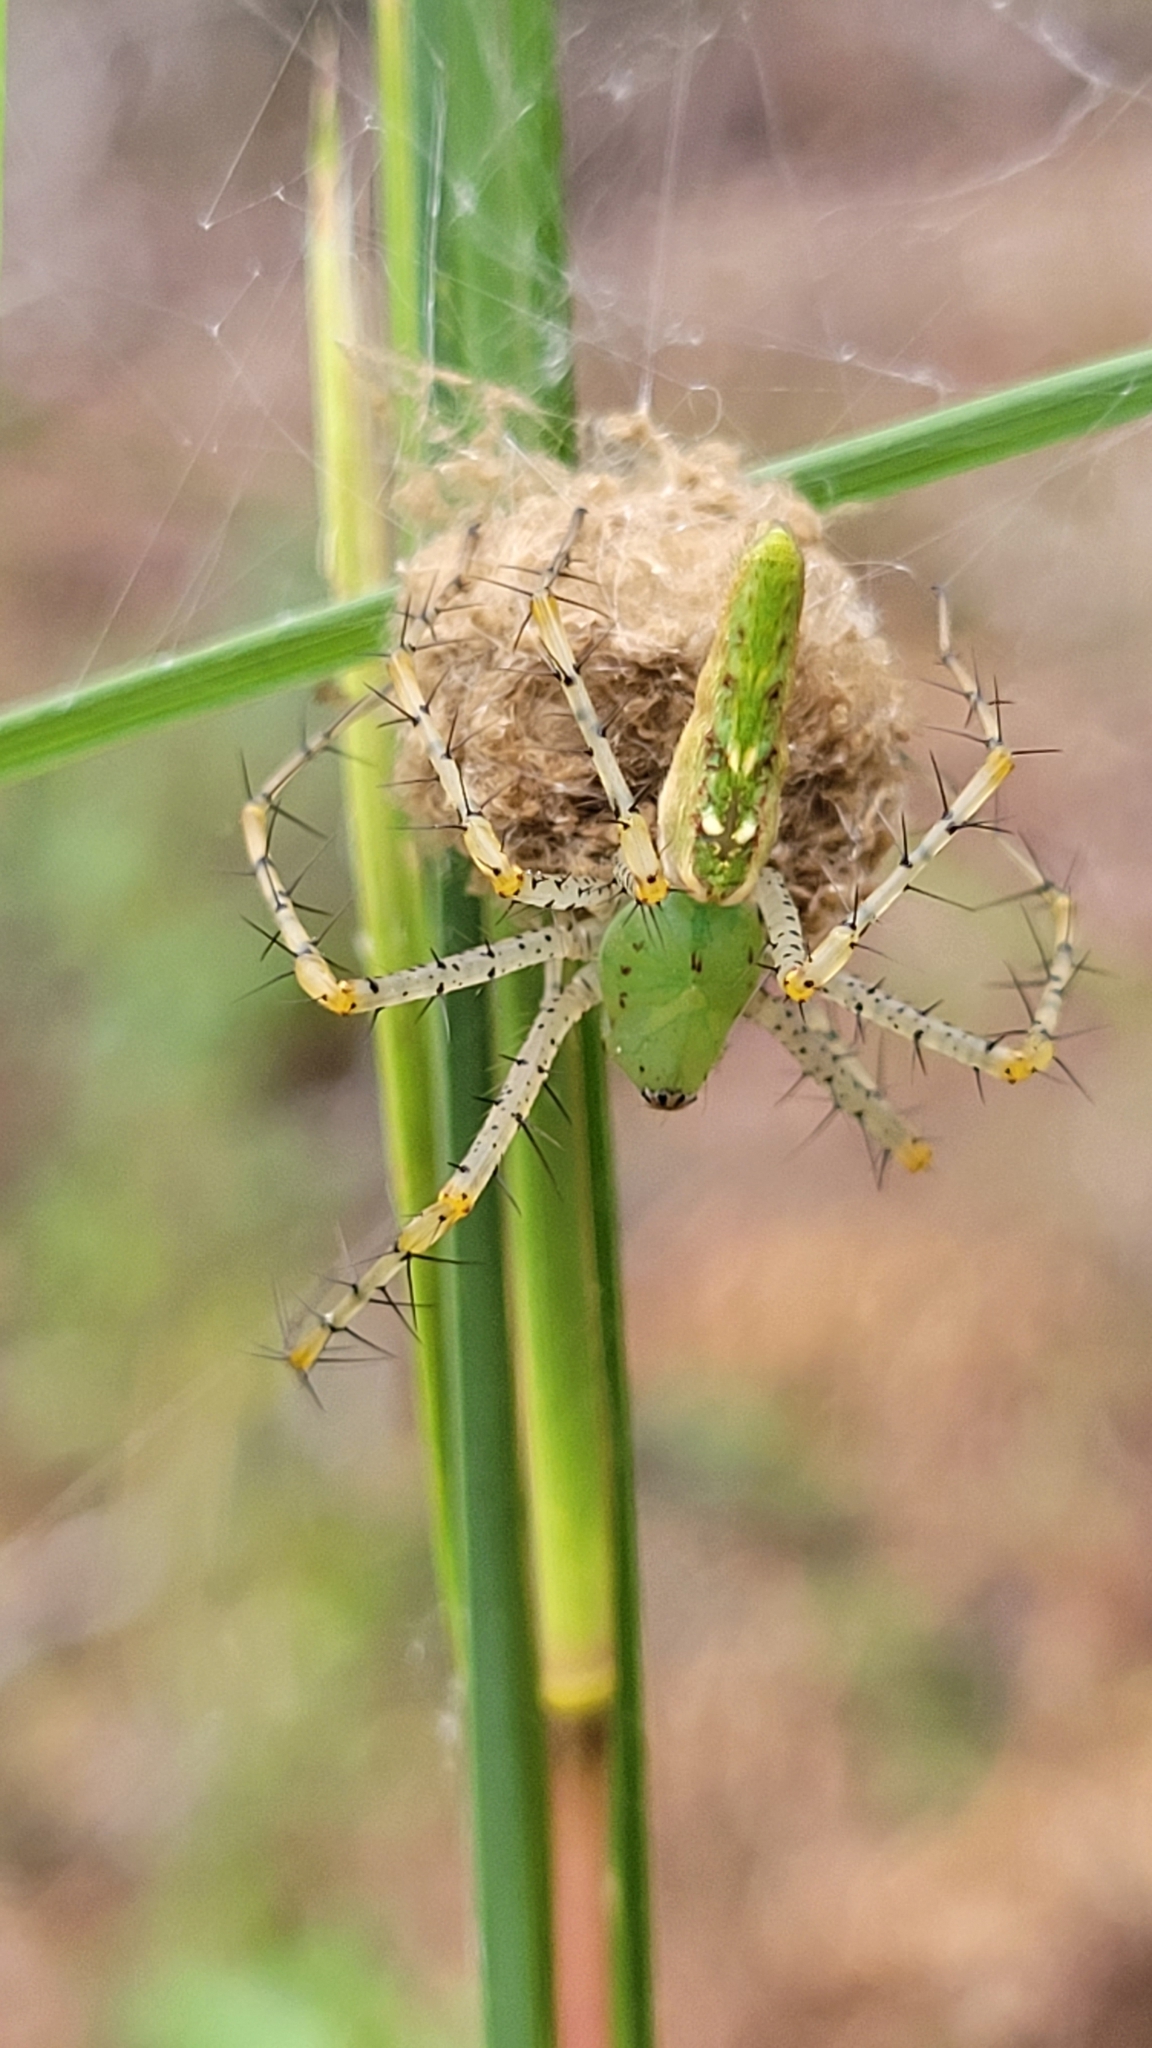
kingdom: Animalia
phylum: Arthropoda
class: Arachnida
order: Araneae
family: Oxyopidae
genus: Peucetia
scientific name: Peucetia viridans
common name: Lynx spiders
